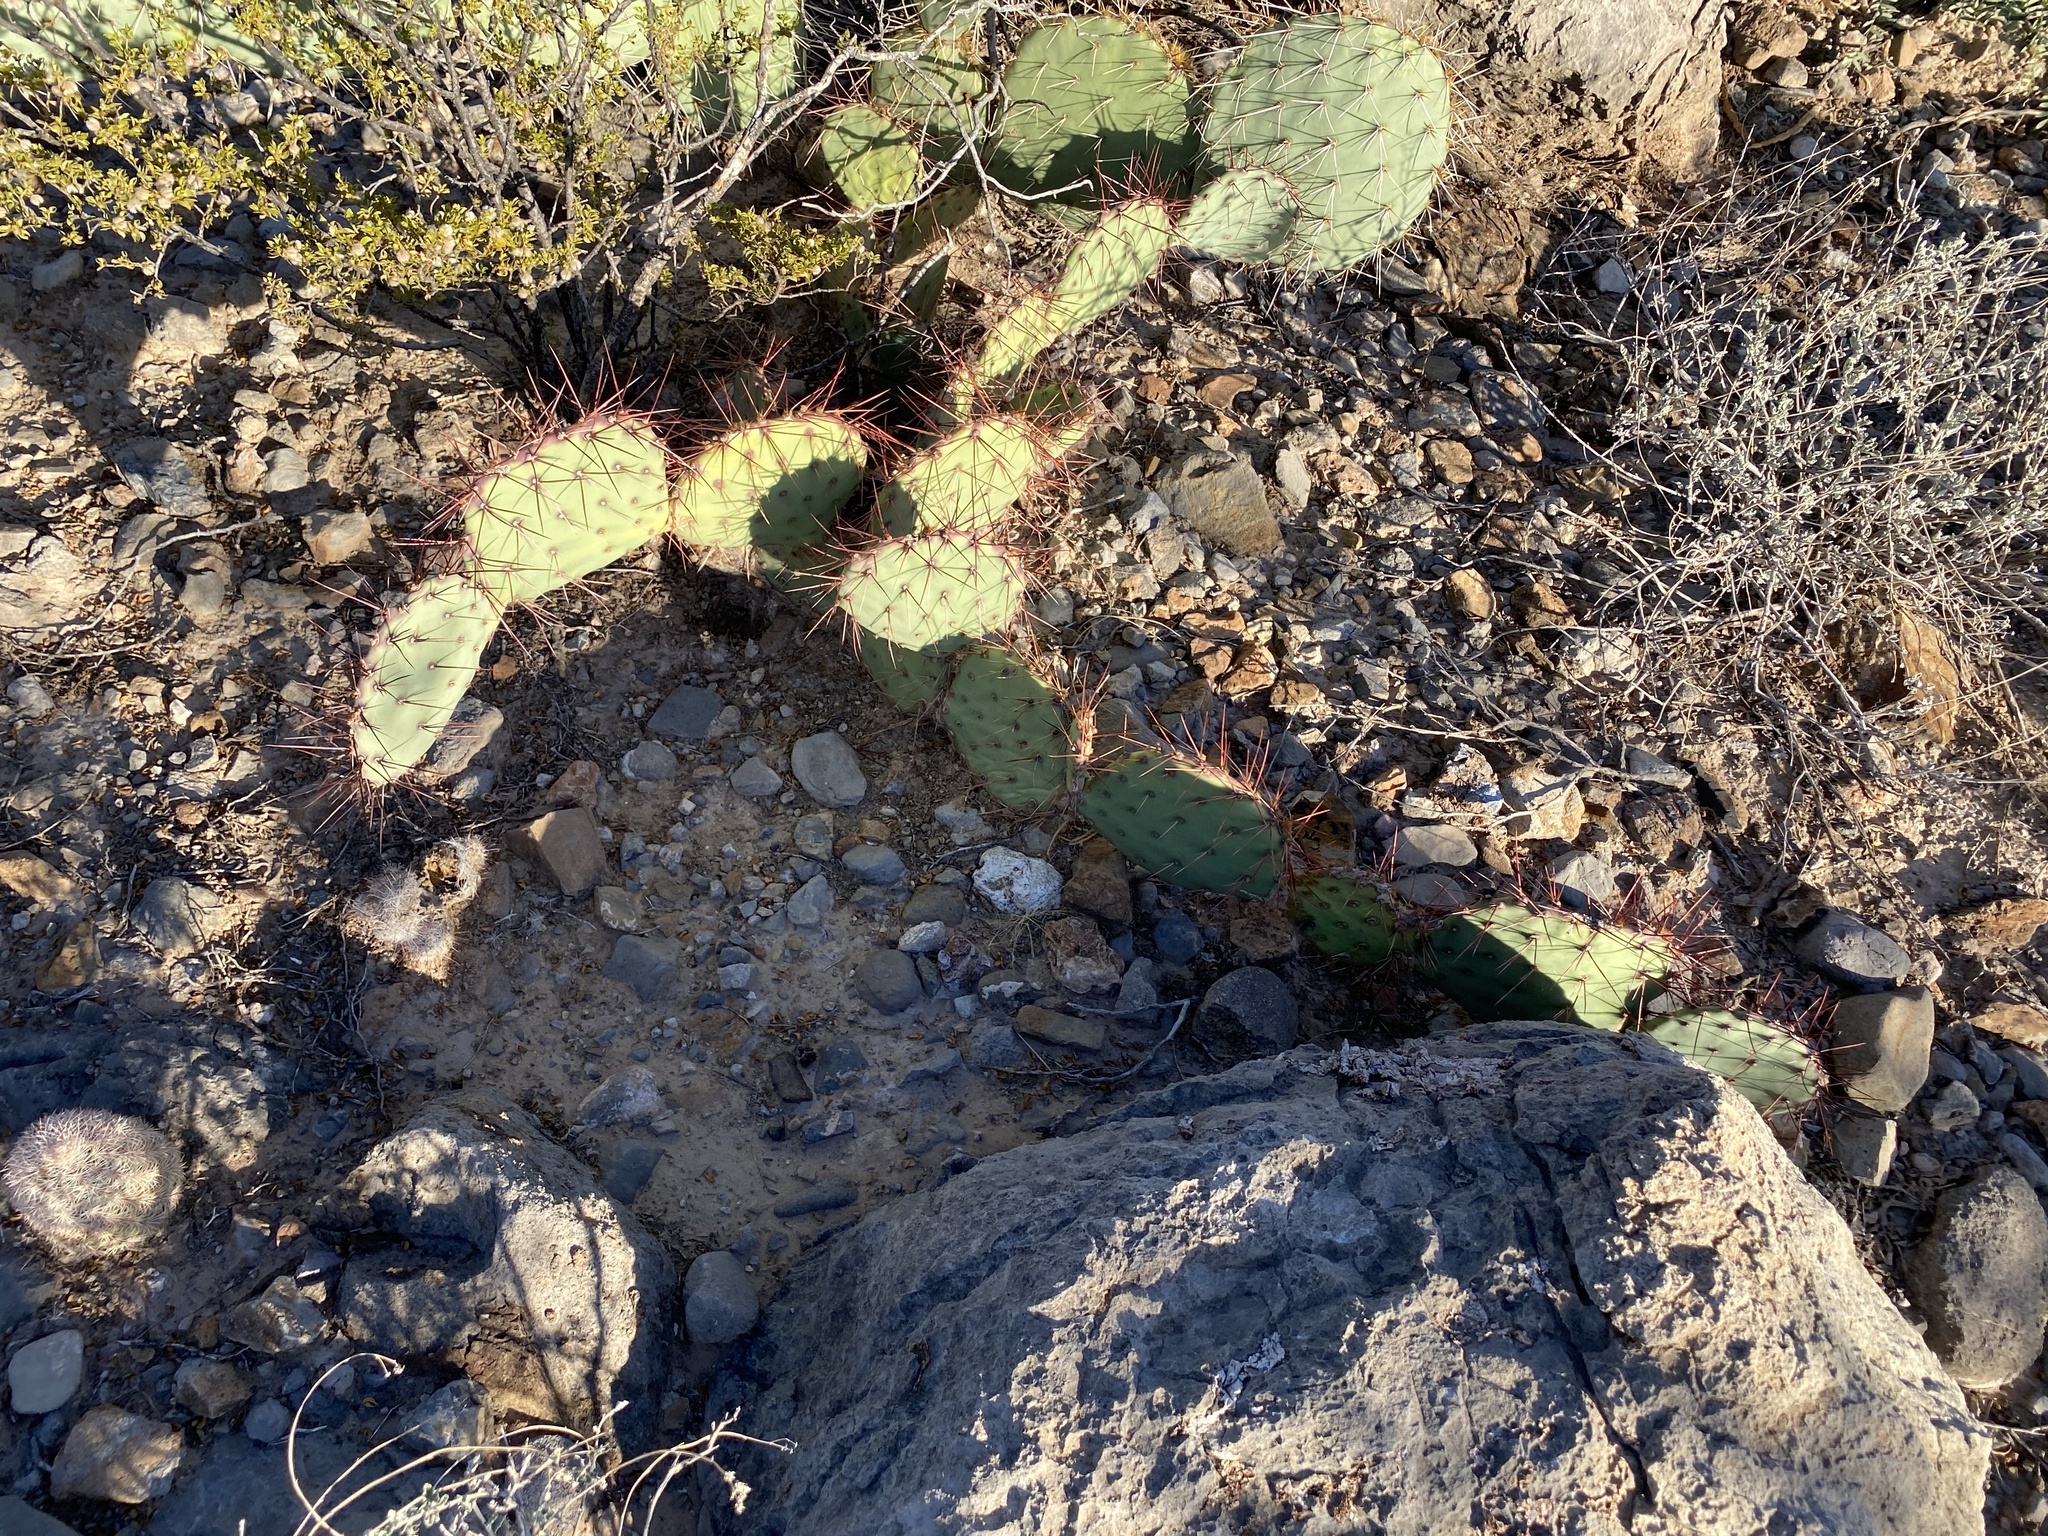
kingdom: Plantae
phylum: Tracheophyta
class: Magnoliopsida
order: Caryophyllales
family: Cactaceae
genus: Opuntia
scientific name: Opuntia phaeacantha
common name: New mexico prickly-pear
